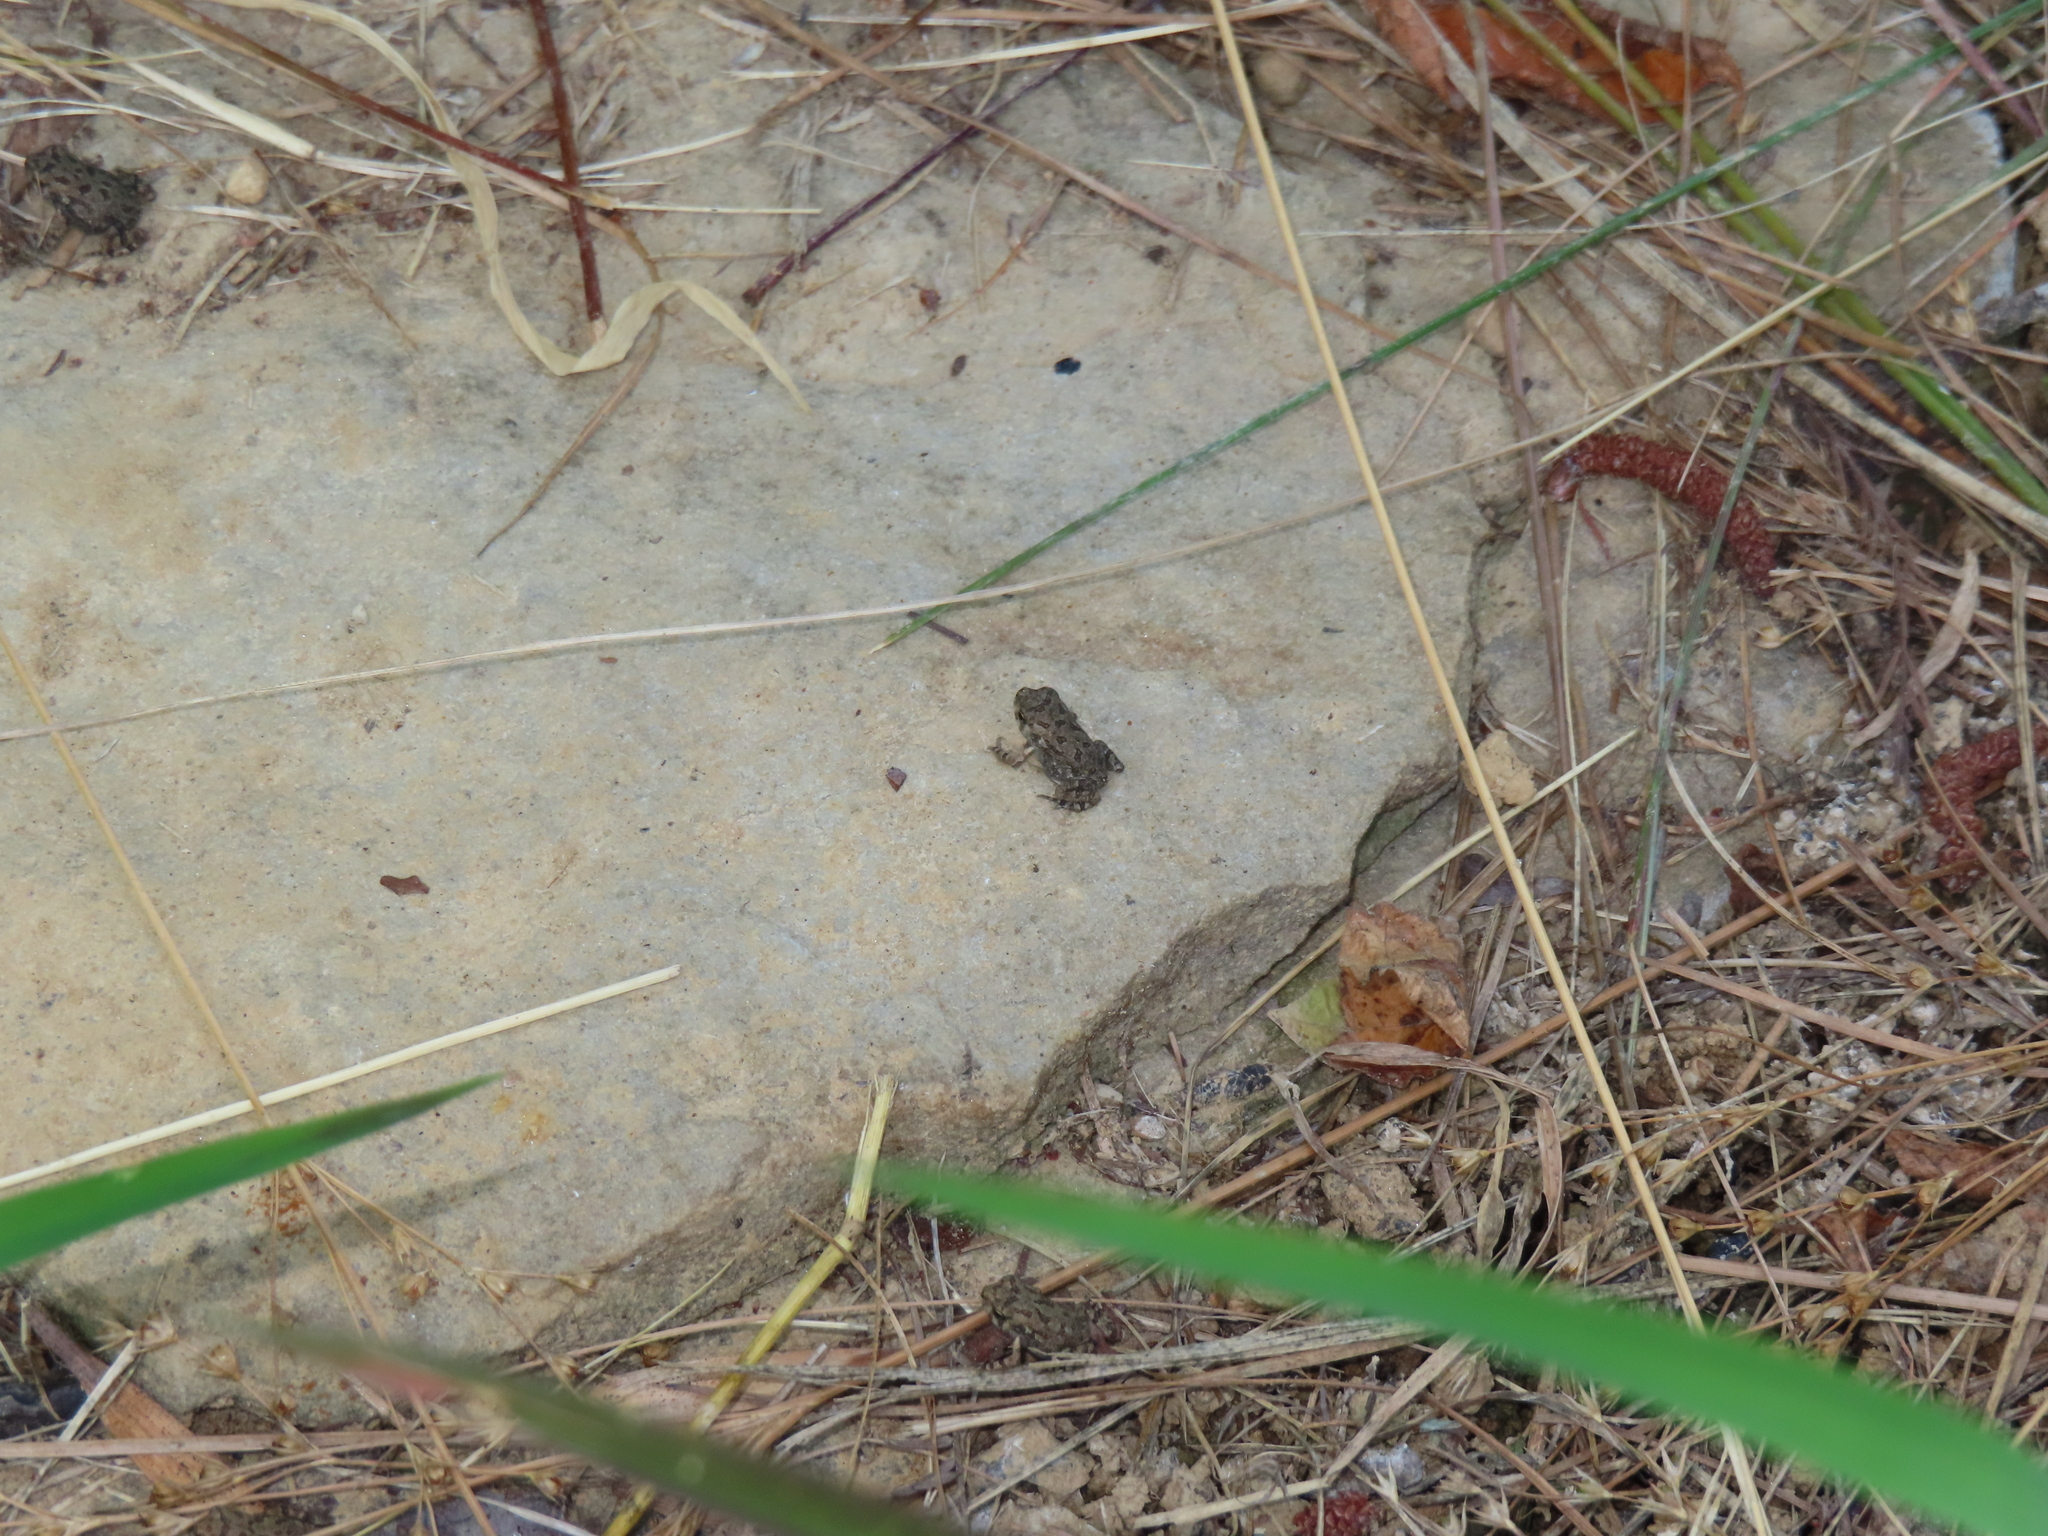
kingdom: Animalia
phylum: Chordata
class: Amphibia
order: Anura
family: Bufonidae
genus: Anaxyrus
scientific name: Anaxyrus fowleri
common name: Fowler's toad
